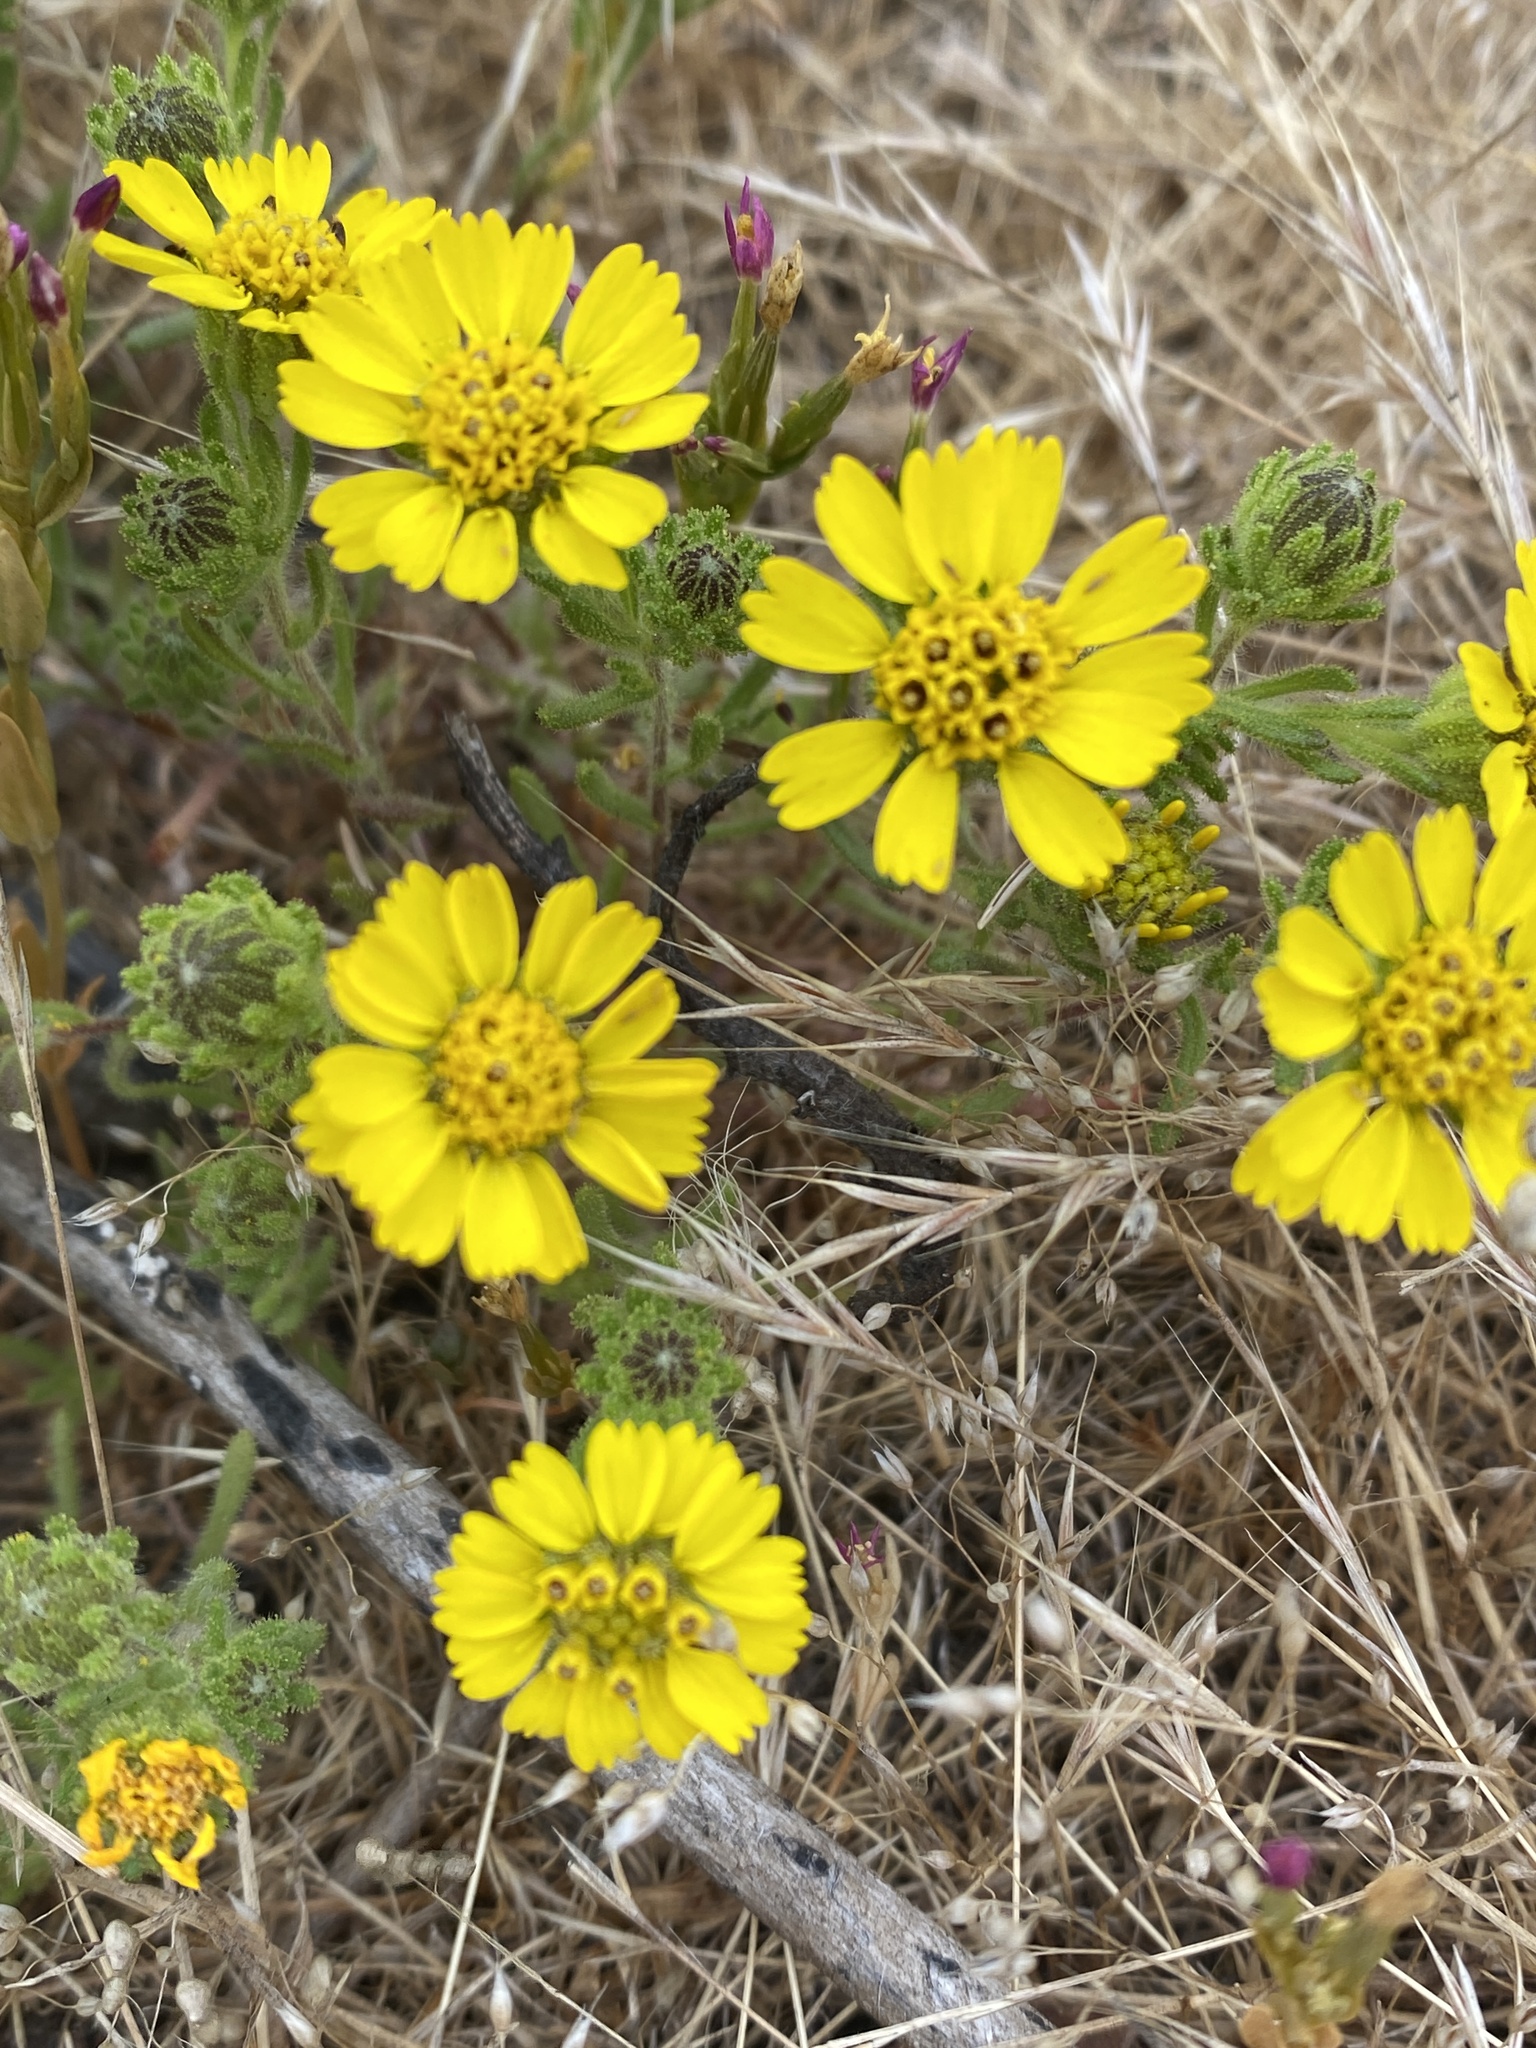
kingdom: Plantae
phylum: Tracheophyta
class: Magnoliopsida
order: Asterales
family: Asteraceae
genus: Deinandra
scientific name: Deinandra corymbosa
